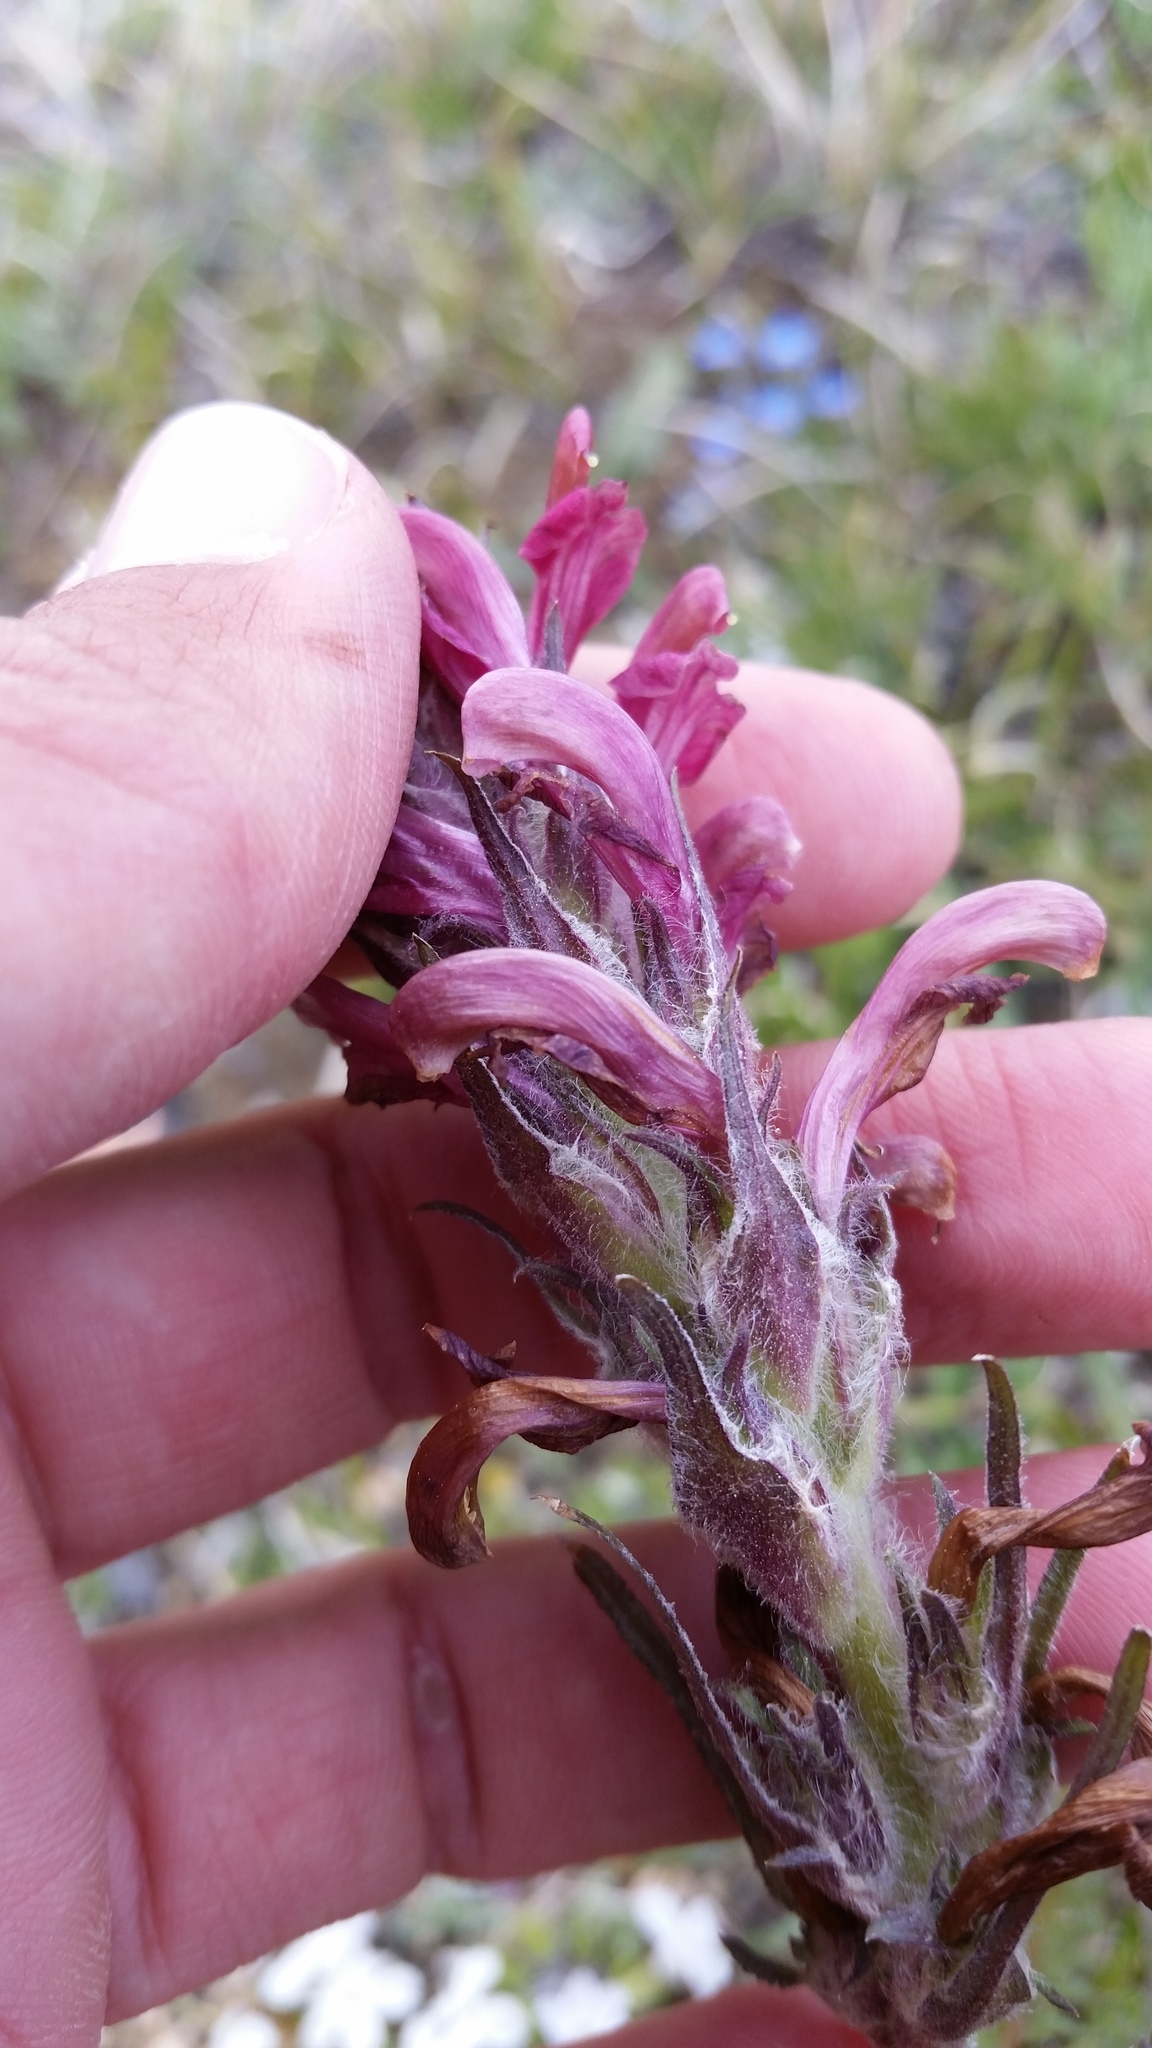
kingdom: Plantae
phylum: Tracheophyta
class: Magnoliopsida
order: Lamiales
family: Orobanchaceae
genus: Pedicularis
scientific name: Pedicularis cystopteridifolia
